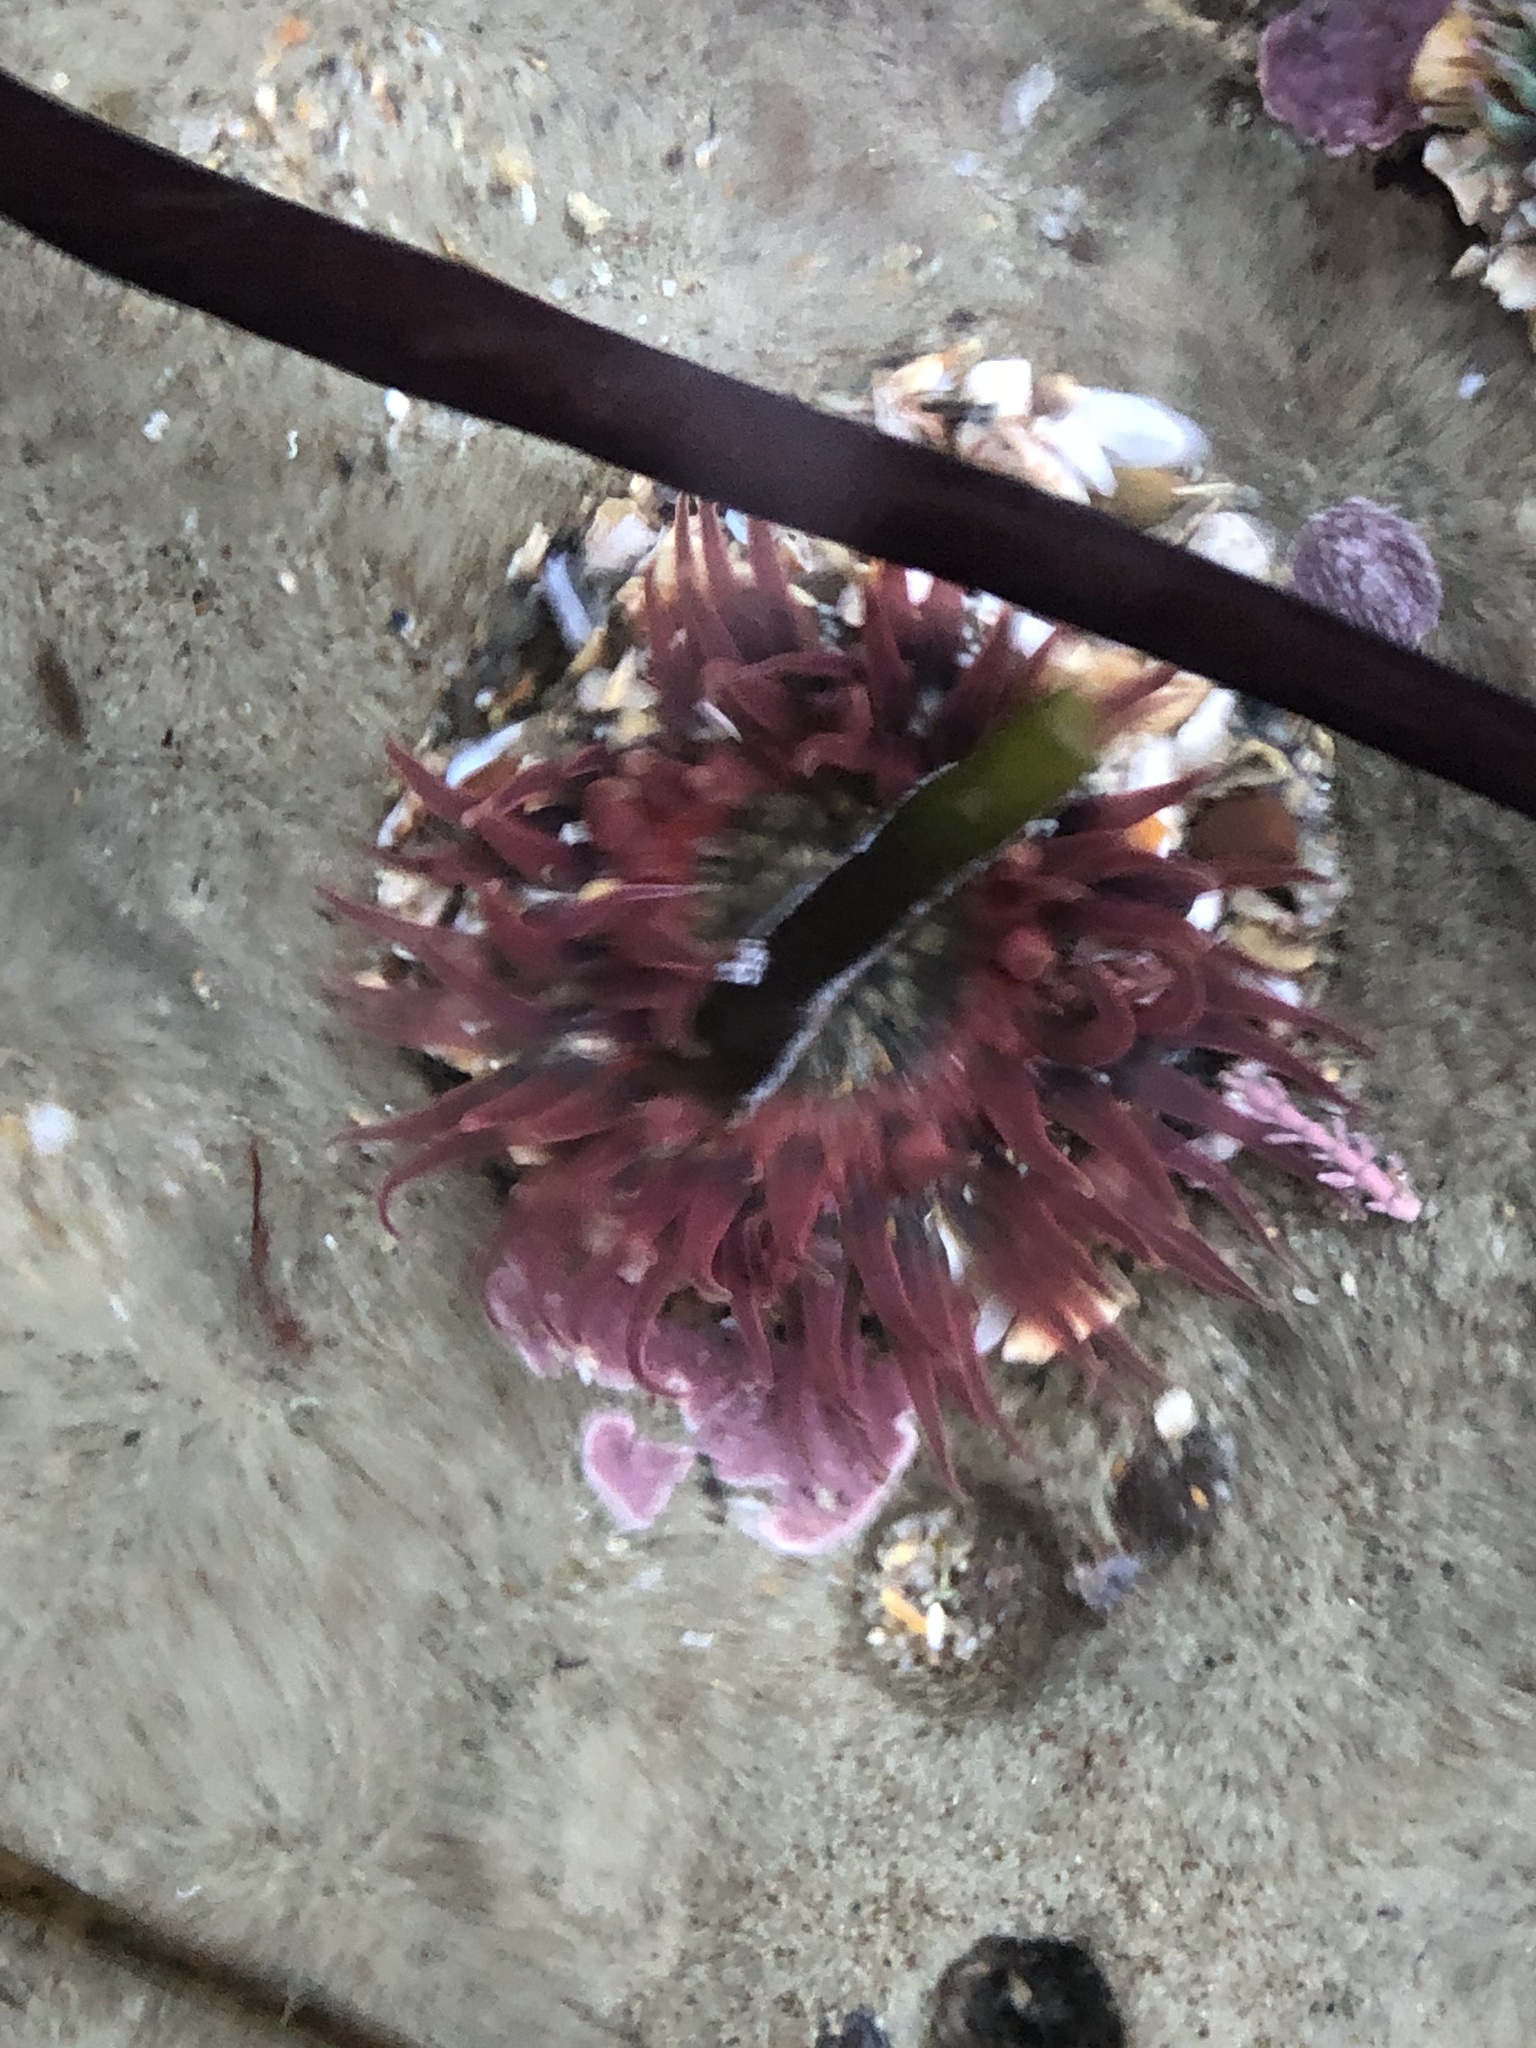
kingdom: Animalia
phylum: Cnidaria
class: Anthozoa
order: Actiniaria
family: Actiniidae
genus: Anthopleura
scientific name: Anthopleura artemisia
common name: Buried sea anemone
